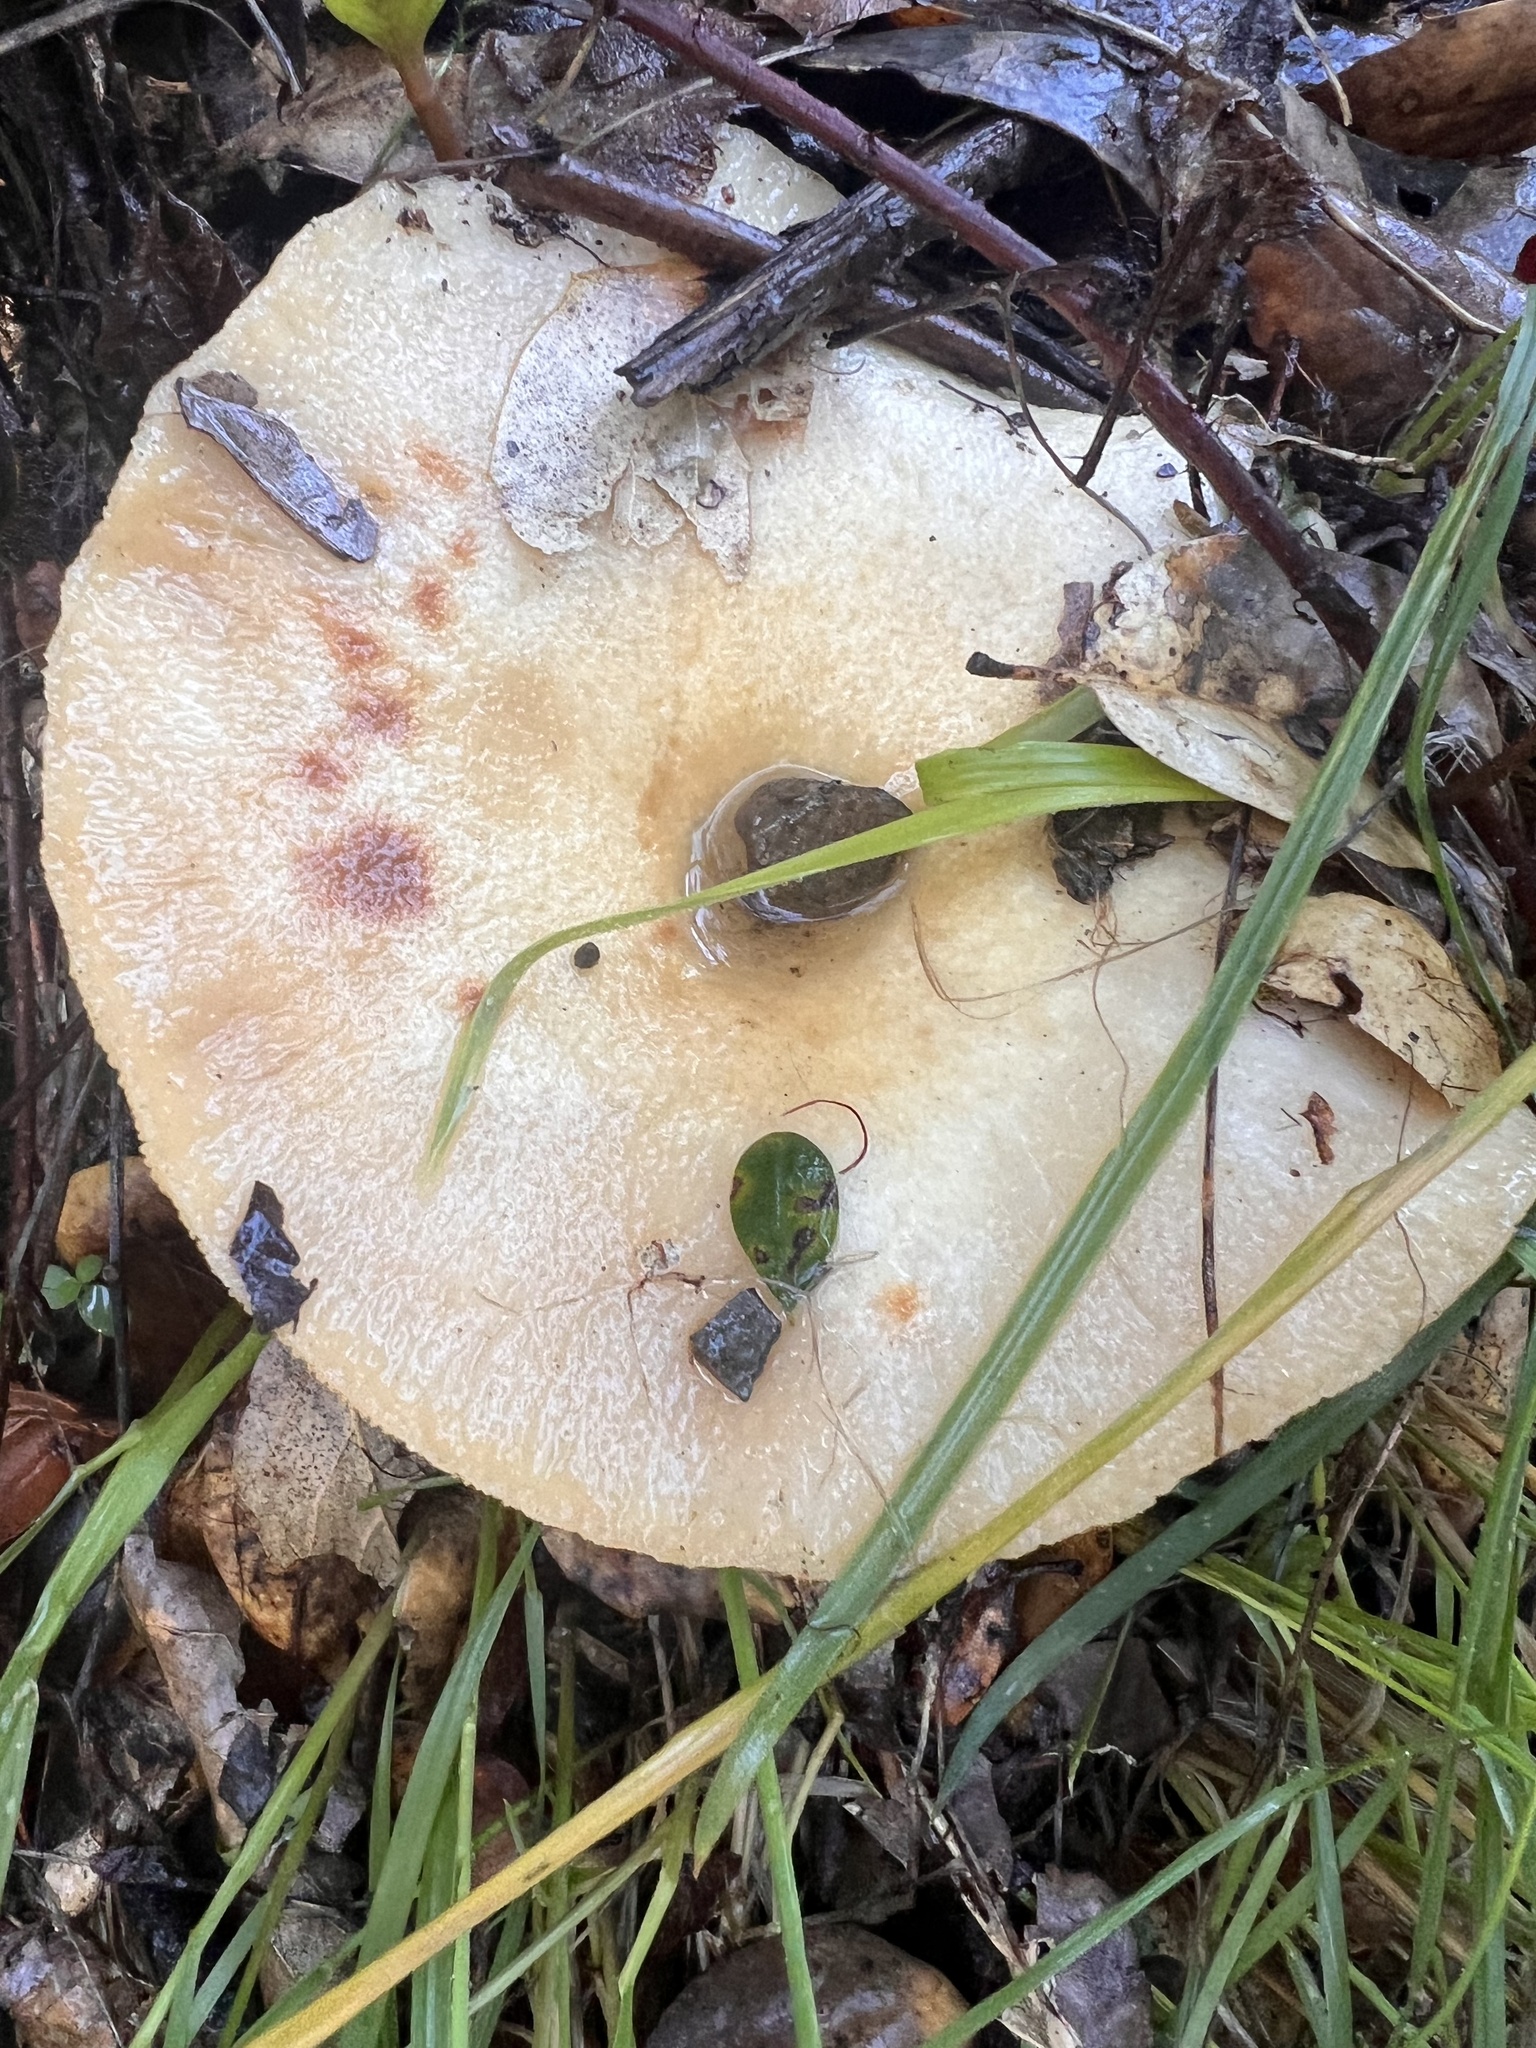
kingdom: Fungi
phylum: Basidiomycota
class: Agaricomycetes
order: Russulales
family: Russulaceae
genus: Lactarius
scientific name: Lactarius alnicola
